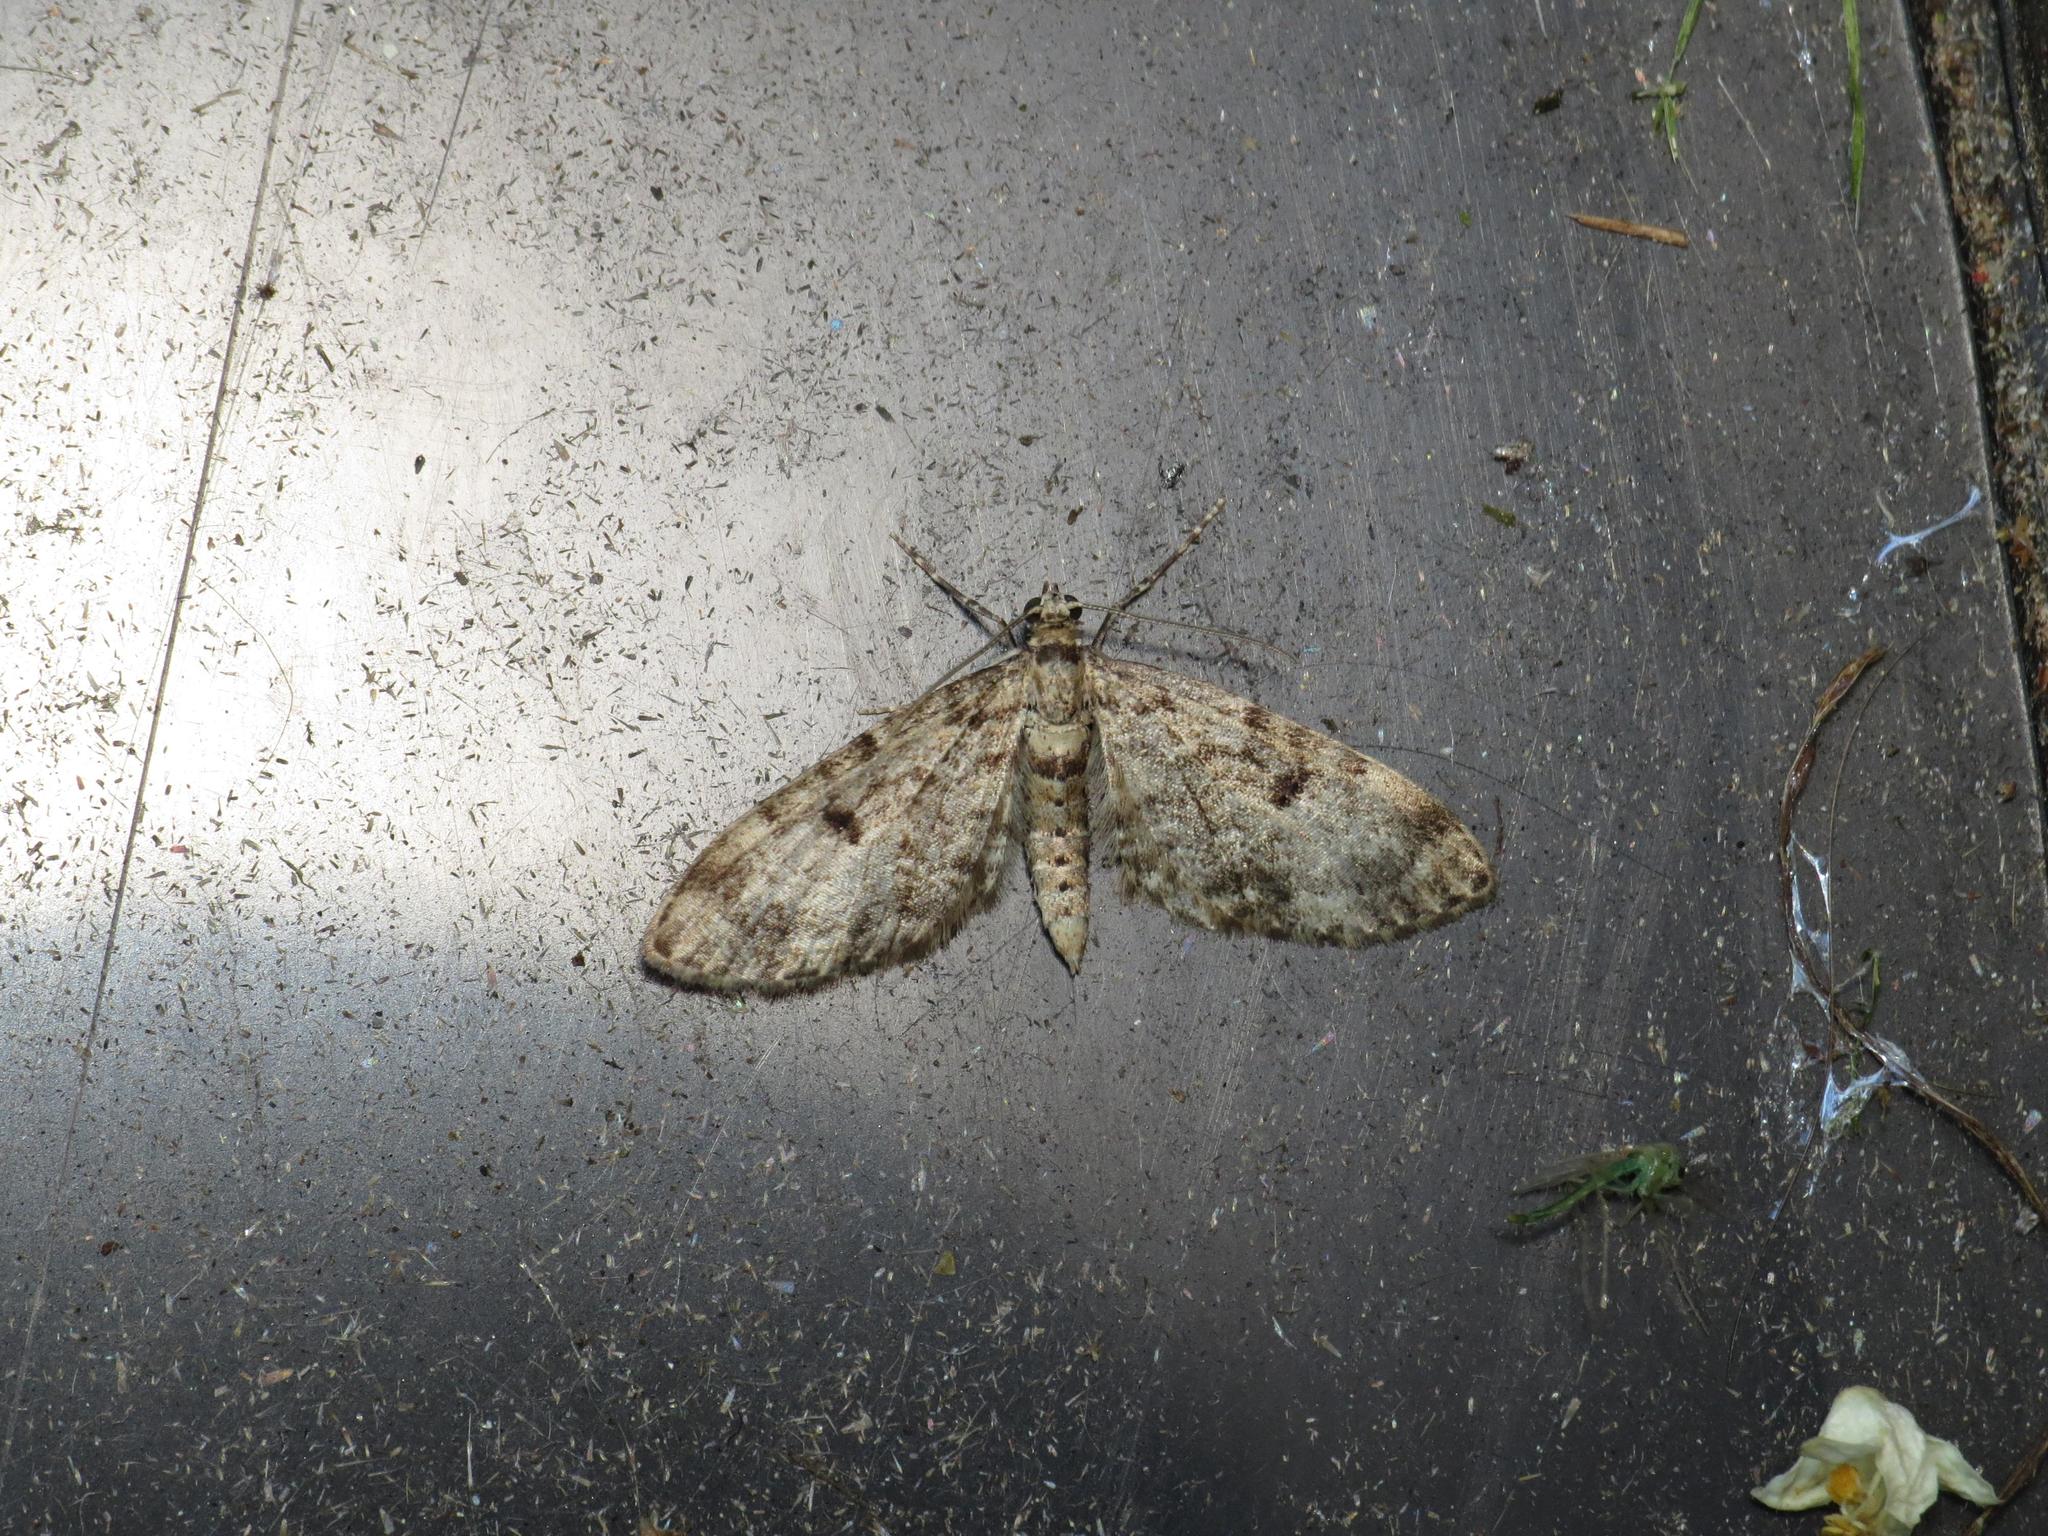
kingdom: Animalia
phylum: Arthropoda
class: Insecta
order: Lepidoptera
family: Geometridae
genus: Eupithecia
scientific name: Eupithecia tantillaria
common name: Dwarf pug
